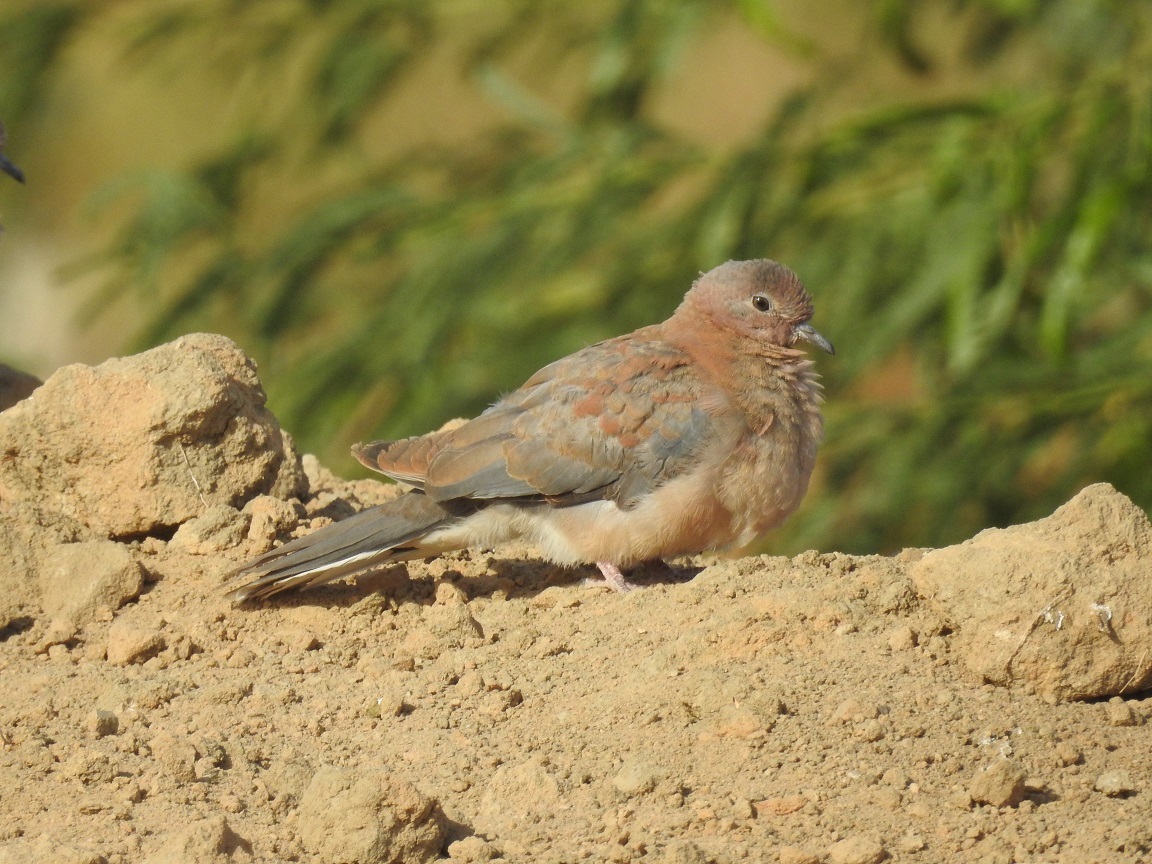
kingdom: Animalia
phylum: Chordata
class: Aves
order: Columbiformes
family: Columbidae
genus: Spilopelia
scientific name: Spilopelia senegalensis
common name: Laughing dove
